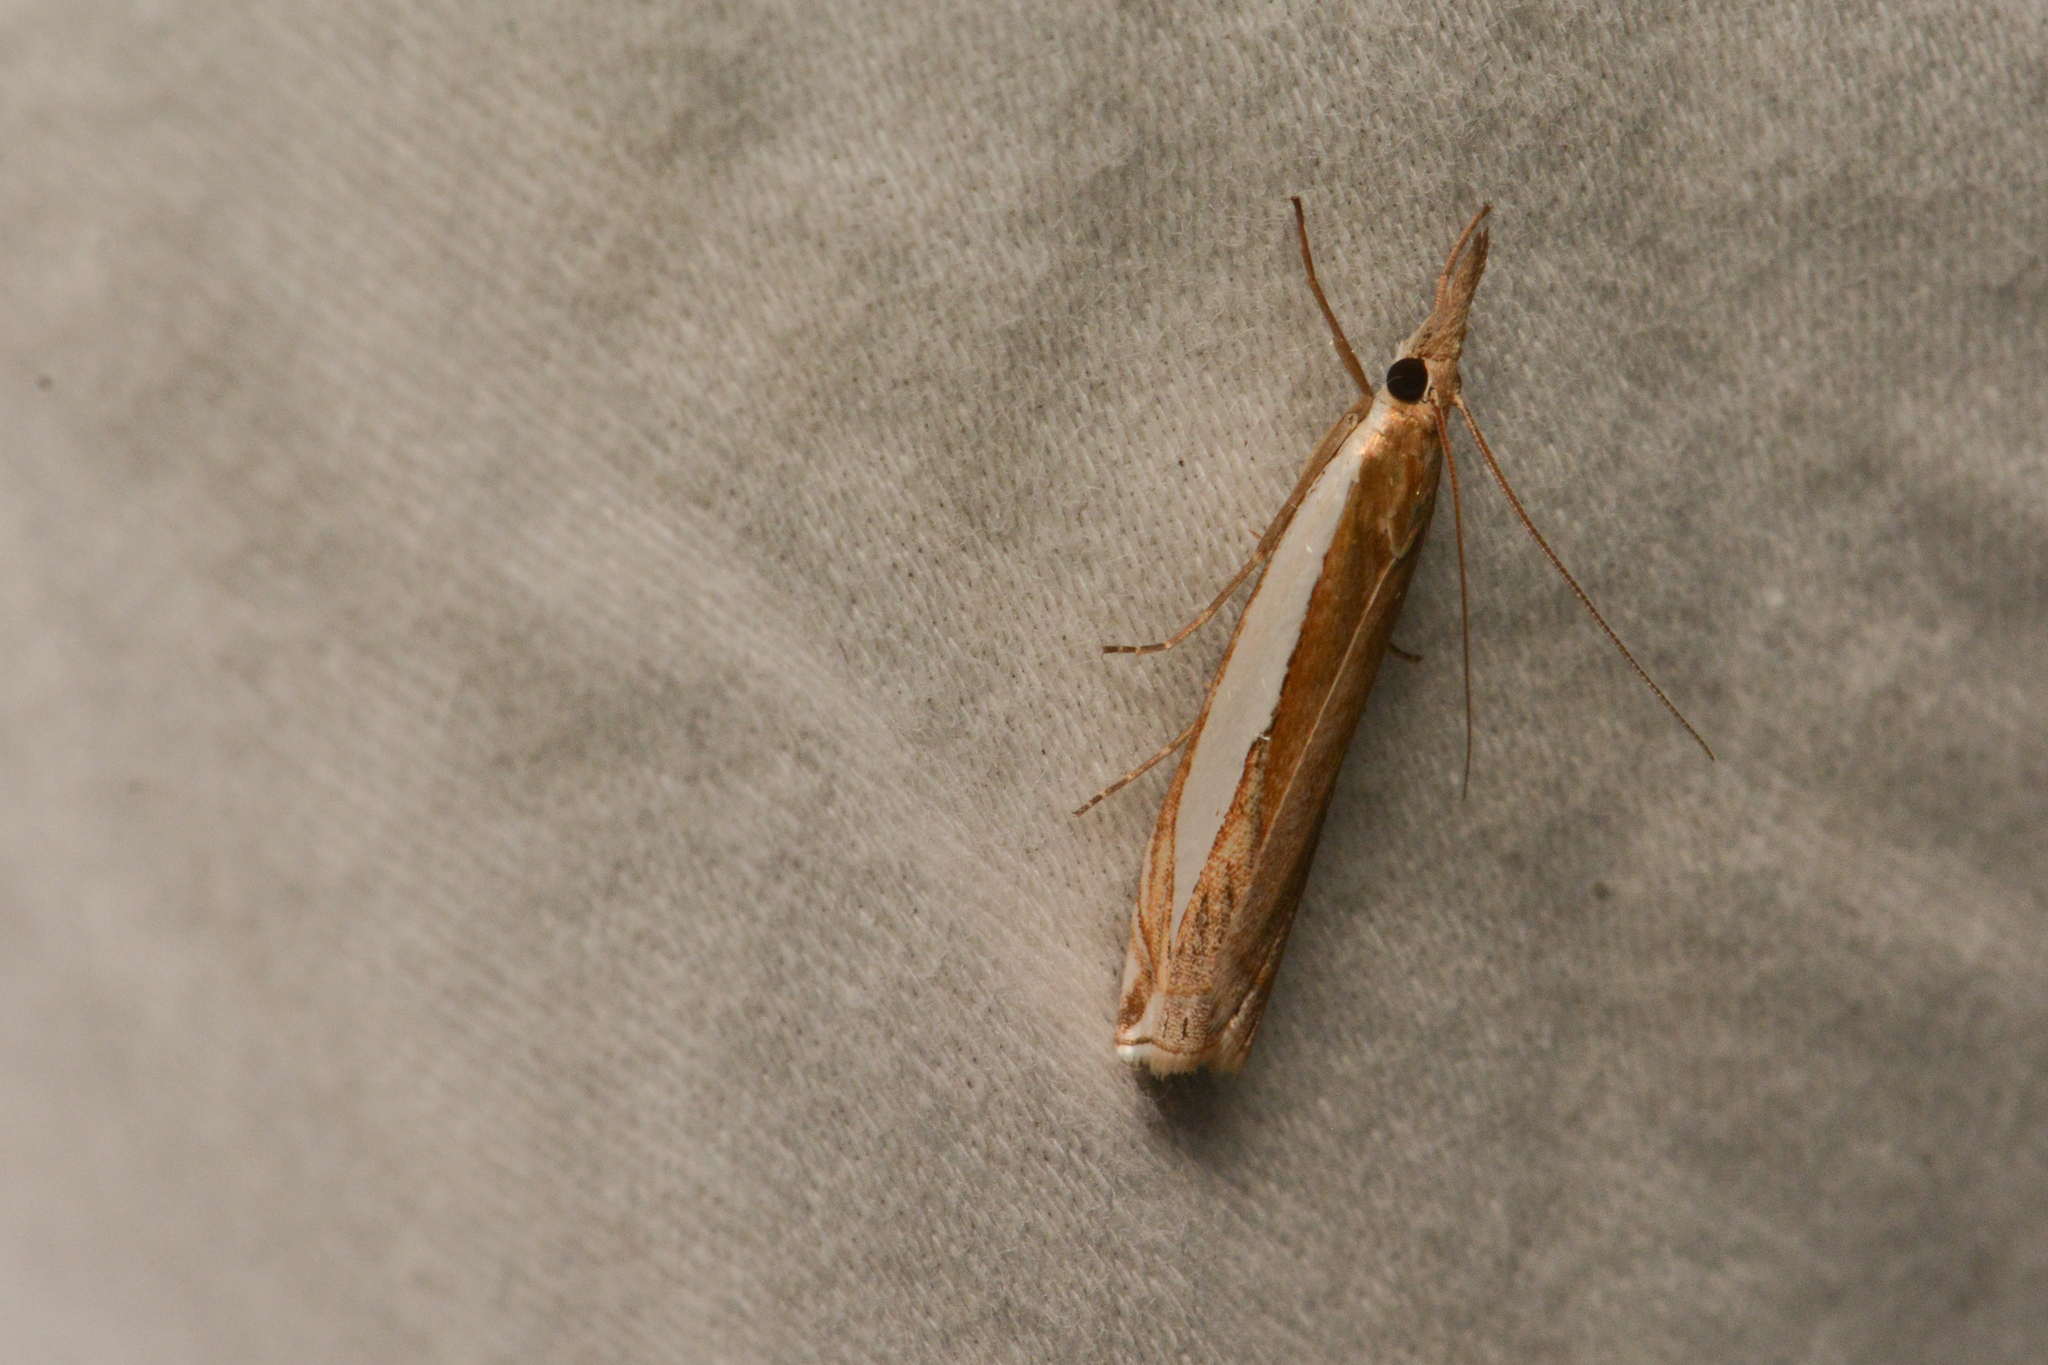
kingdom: Animalia
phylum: Arthropoda
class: Insecta
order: Lepidoptera
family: Crambidae
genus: Crambus
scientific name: Crambus leachellus
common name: Leach's grass-veneer
